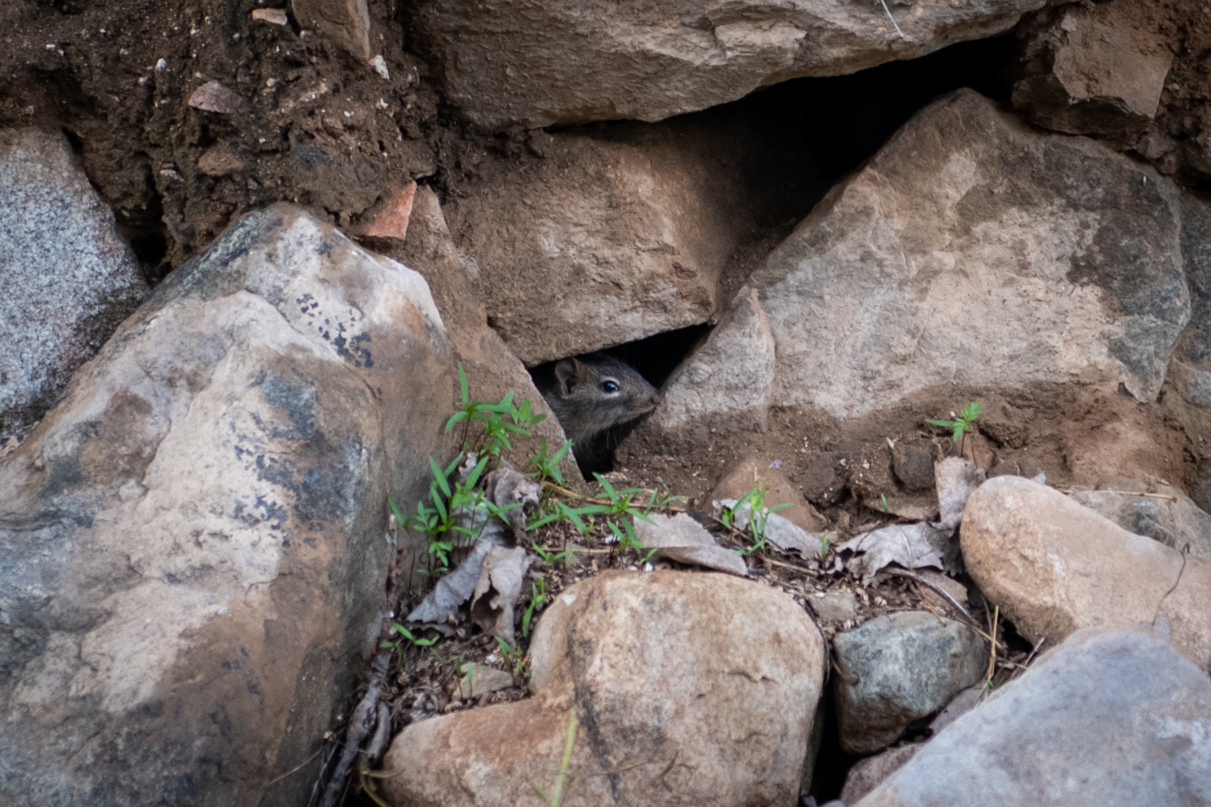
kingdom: Animalia
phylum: Chordata
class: Mammalia
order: Rodentia
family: Sciuridae
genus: Sciurotamias
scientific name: Sciurotamias davidianus
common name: Père david's rock squirrel
